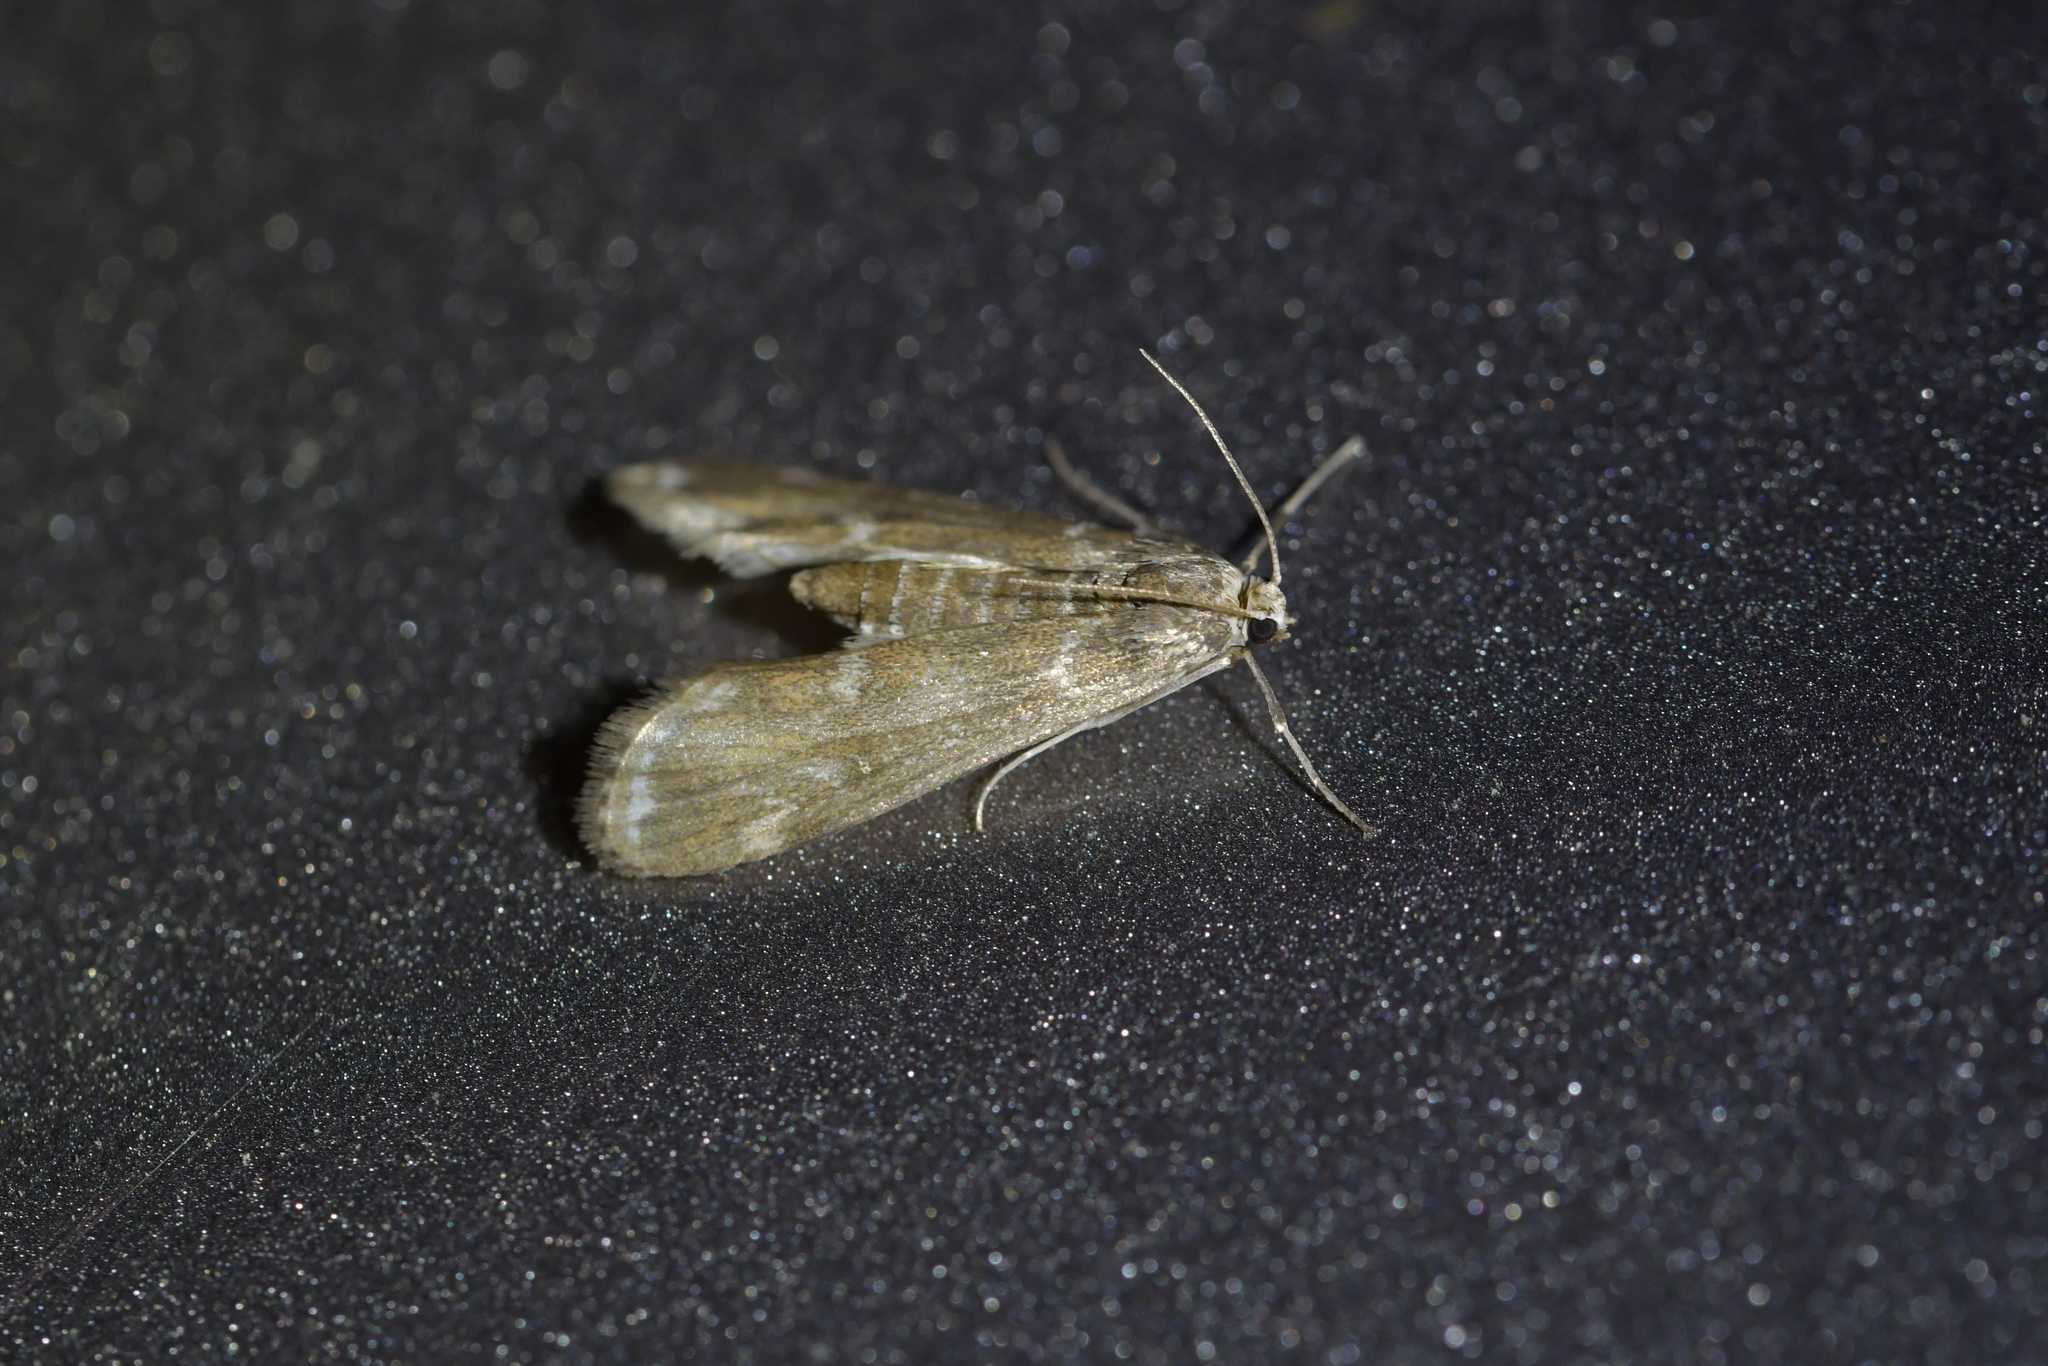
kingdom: Animalia
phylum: Arthropoda
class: Insecta
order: Lepidoptera
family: Crambidae
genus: Hygraula
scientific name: Hygraula nitens
